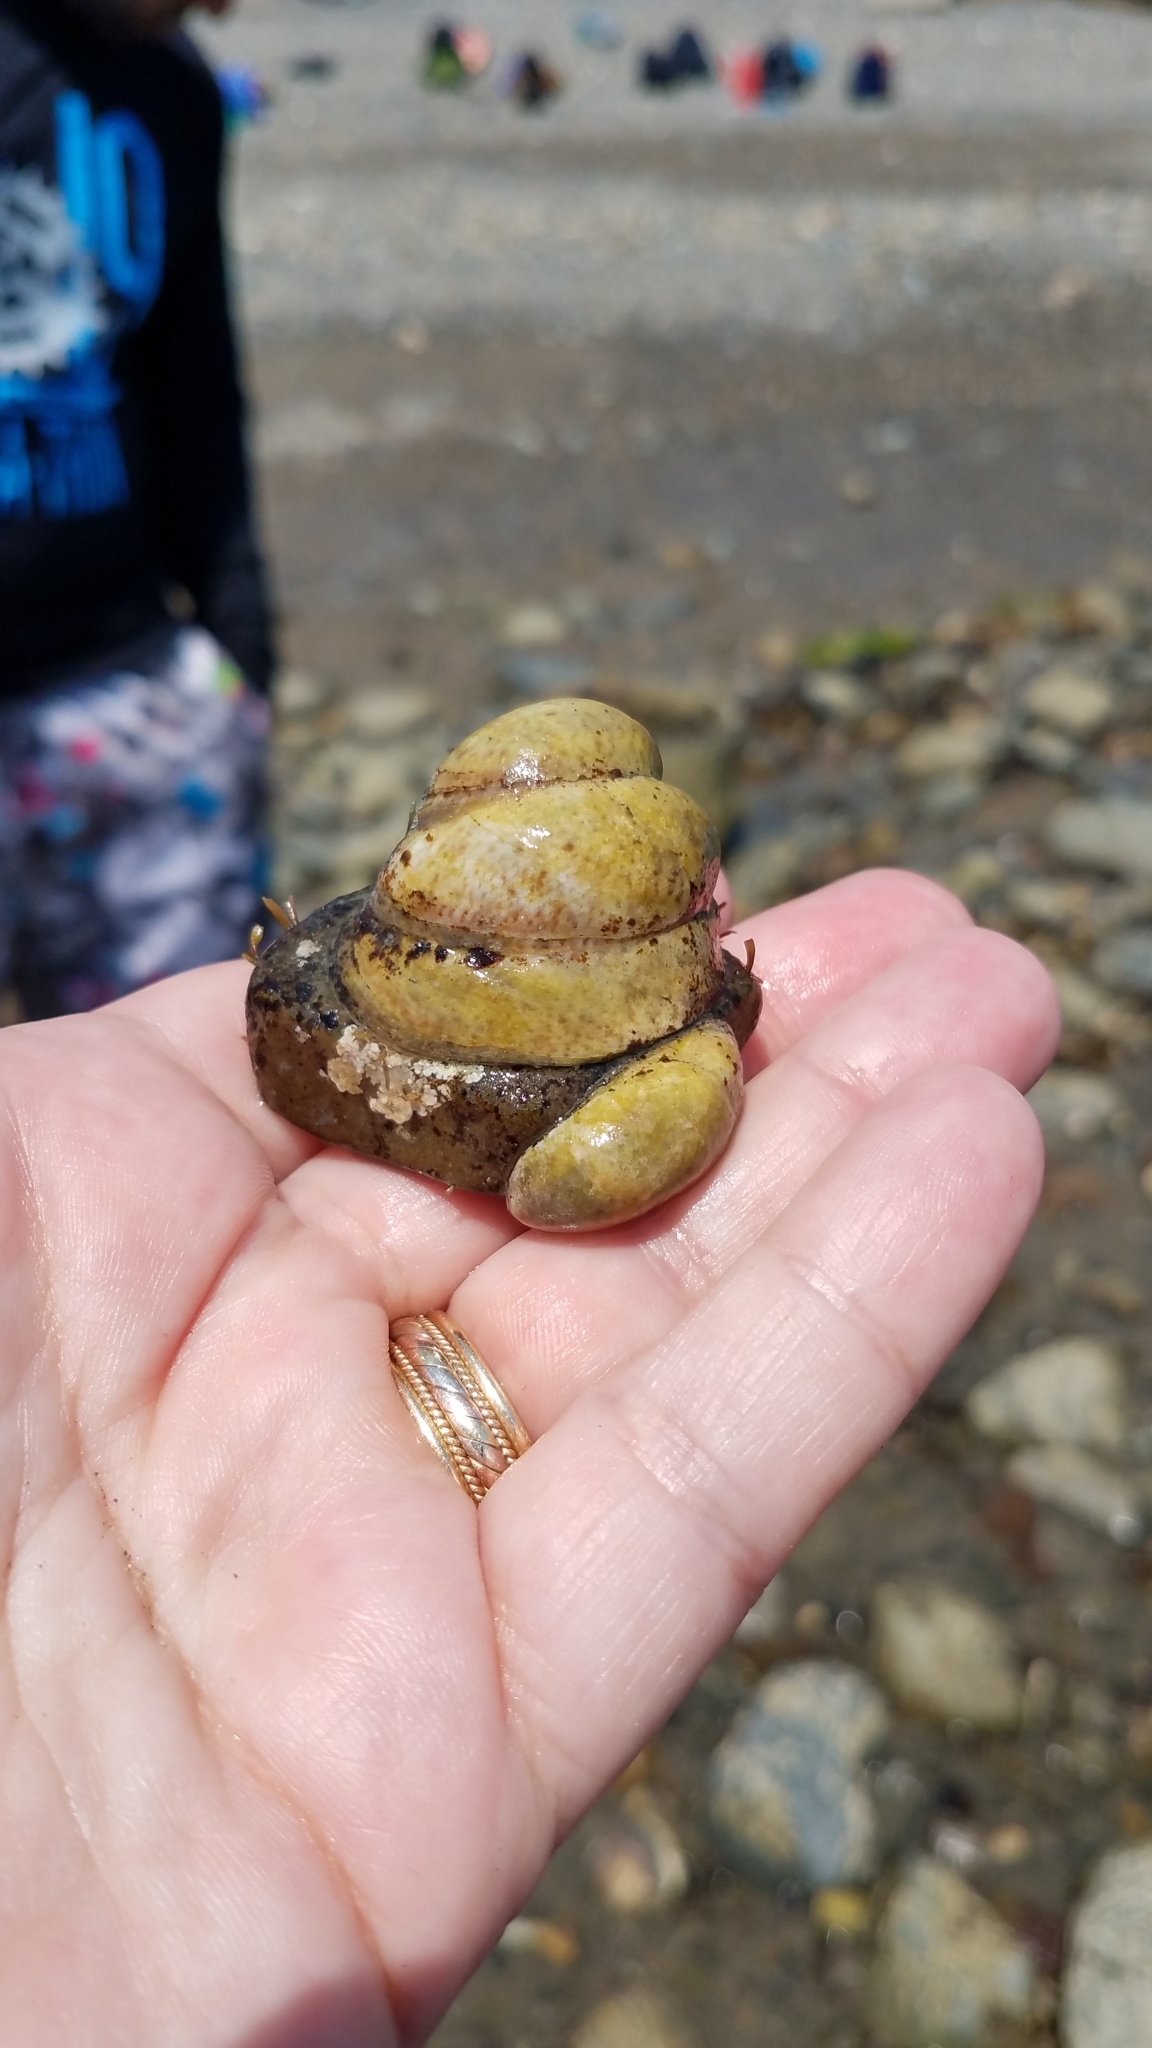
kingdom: Animalia
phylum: Mollusca
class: Gastropoda
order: Littorinimorpha
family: Calyptraeidae
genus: Crepidula
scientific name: Crepidula fornicata
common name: Slipper limpet
